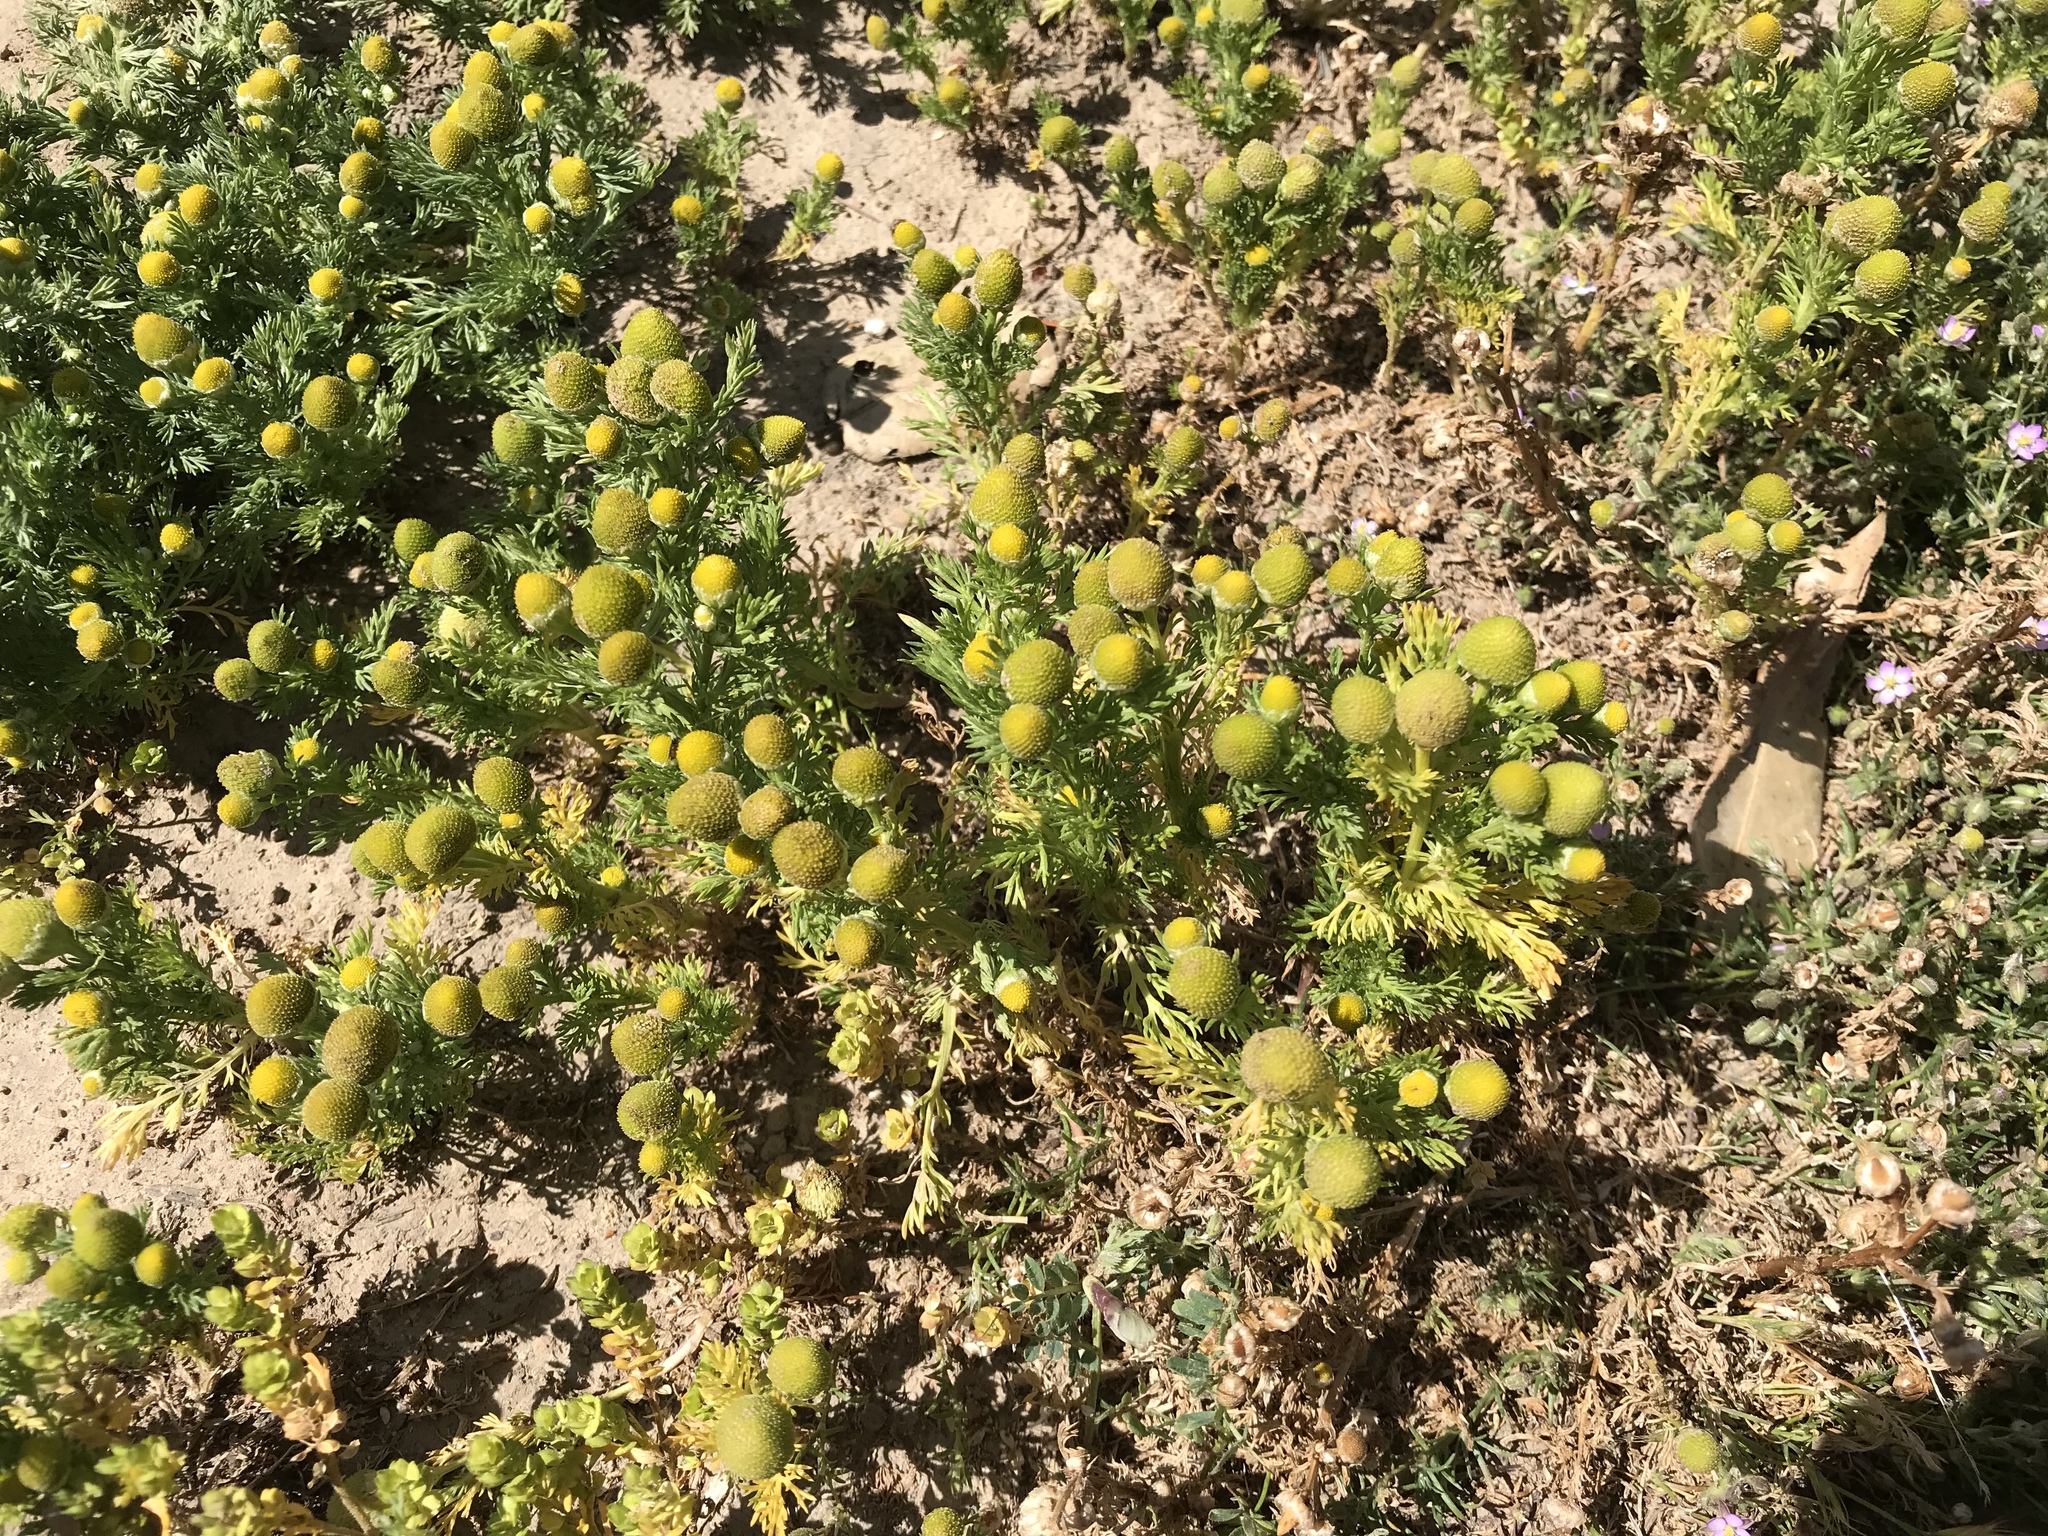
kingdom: Plantae
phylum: Tracheophyta
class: Magnoliopsida
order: Asterales
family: Asteraceae
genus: Matricaria
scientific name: Matricaria discoidea
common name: Disc mayweed
